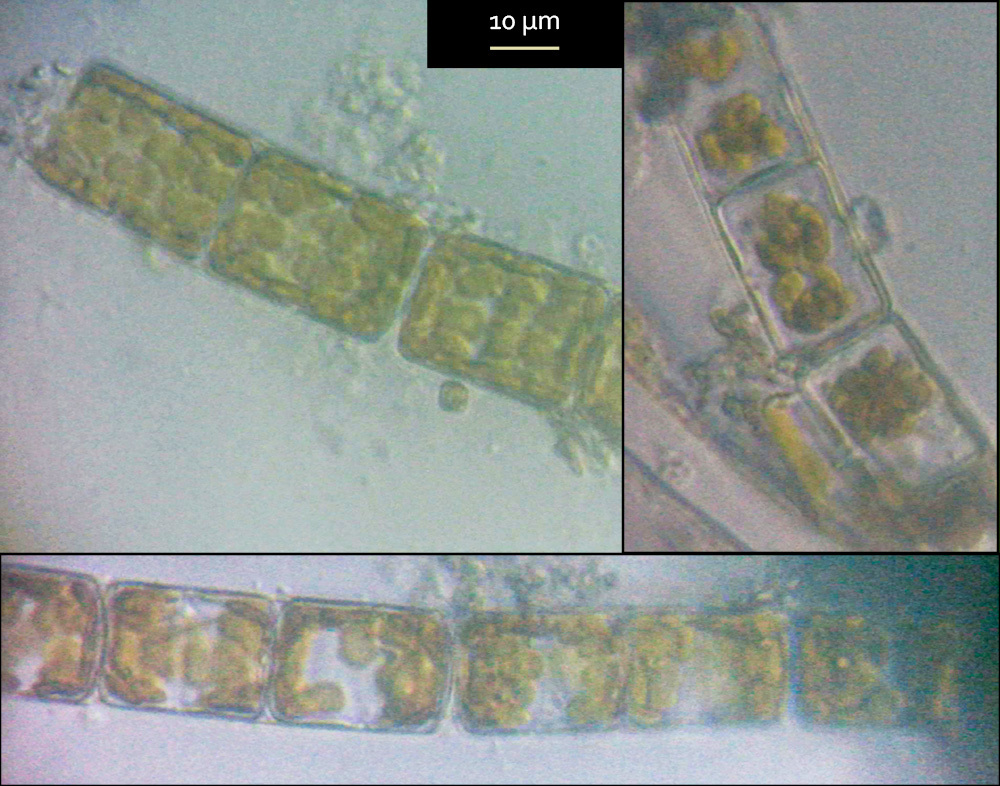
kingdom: Chromista
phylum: Ochrophyta
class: Bacillariophyceae
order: Melosirales
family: Melosiraceae
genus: Melosira
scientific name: Melosira varians
